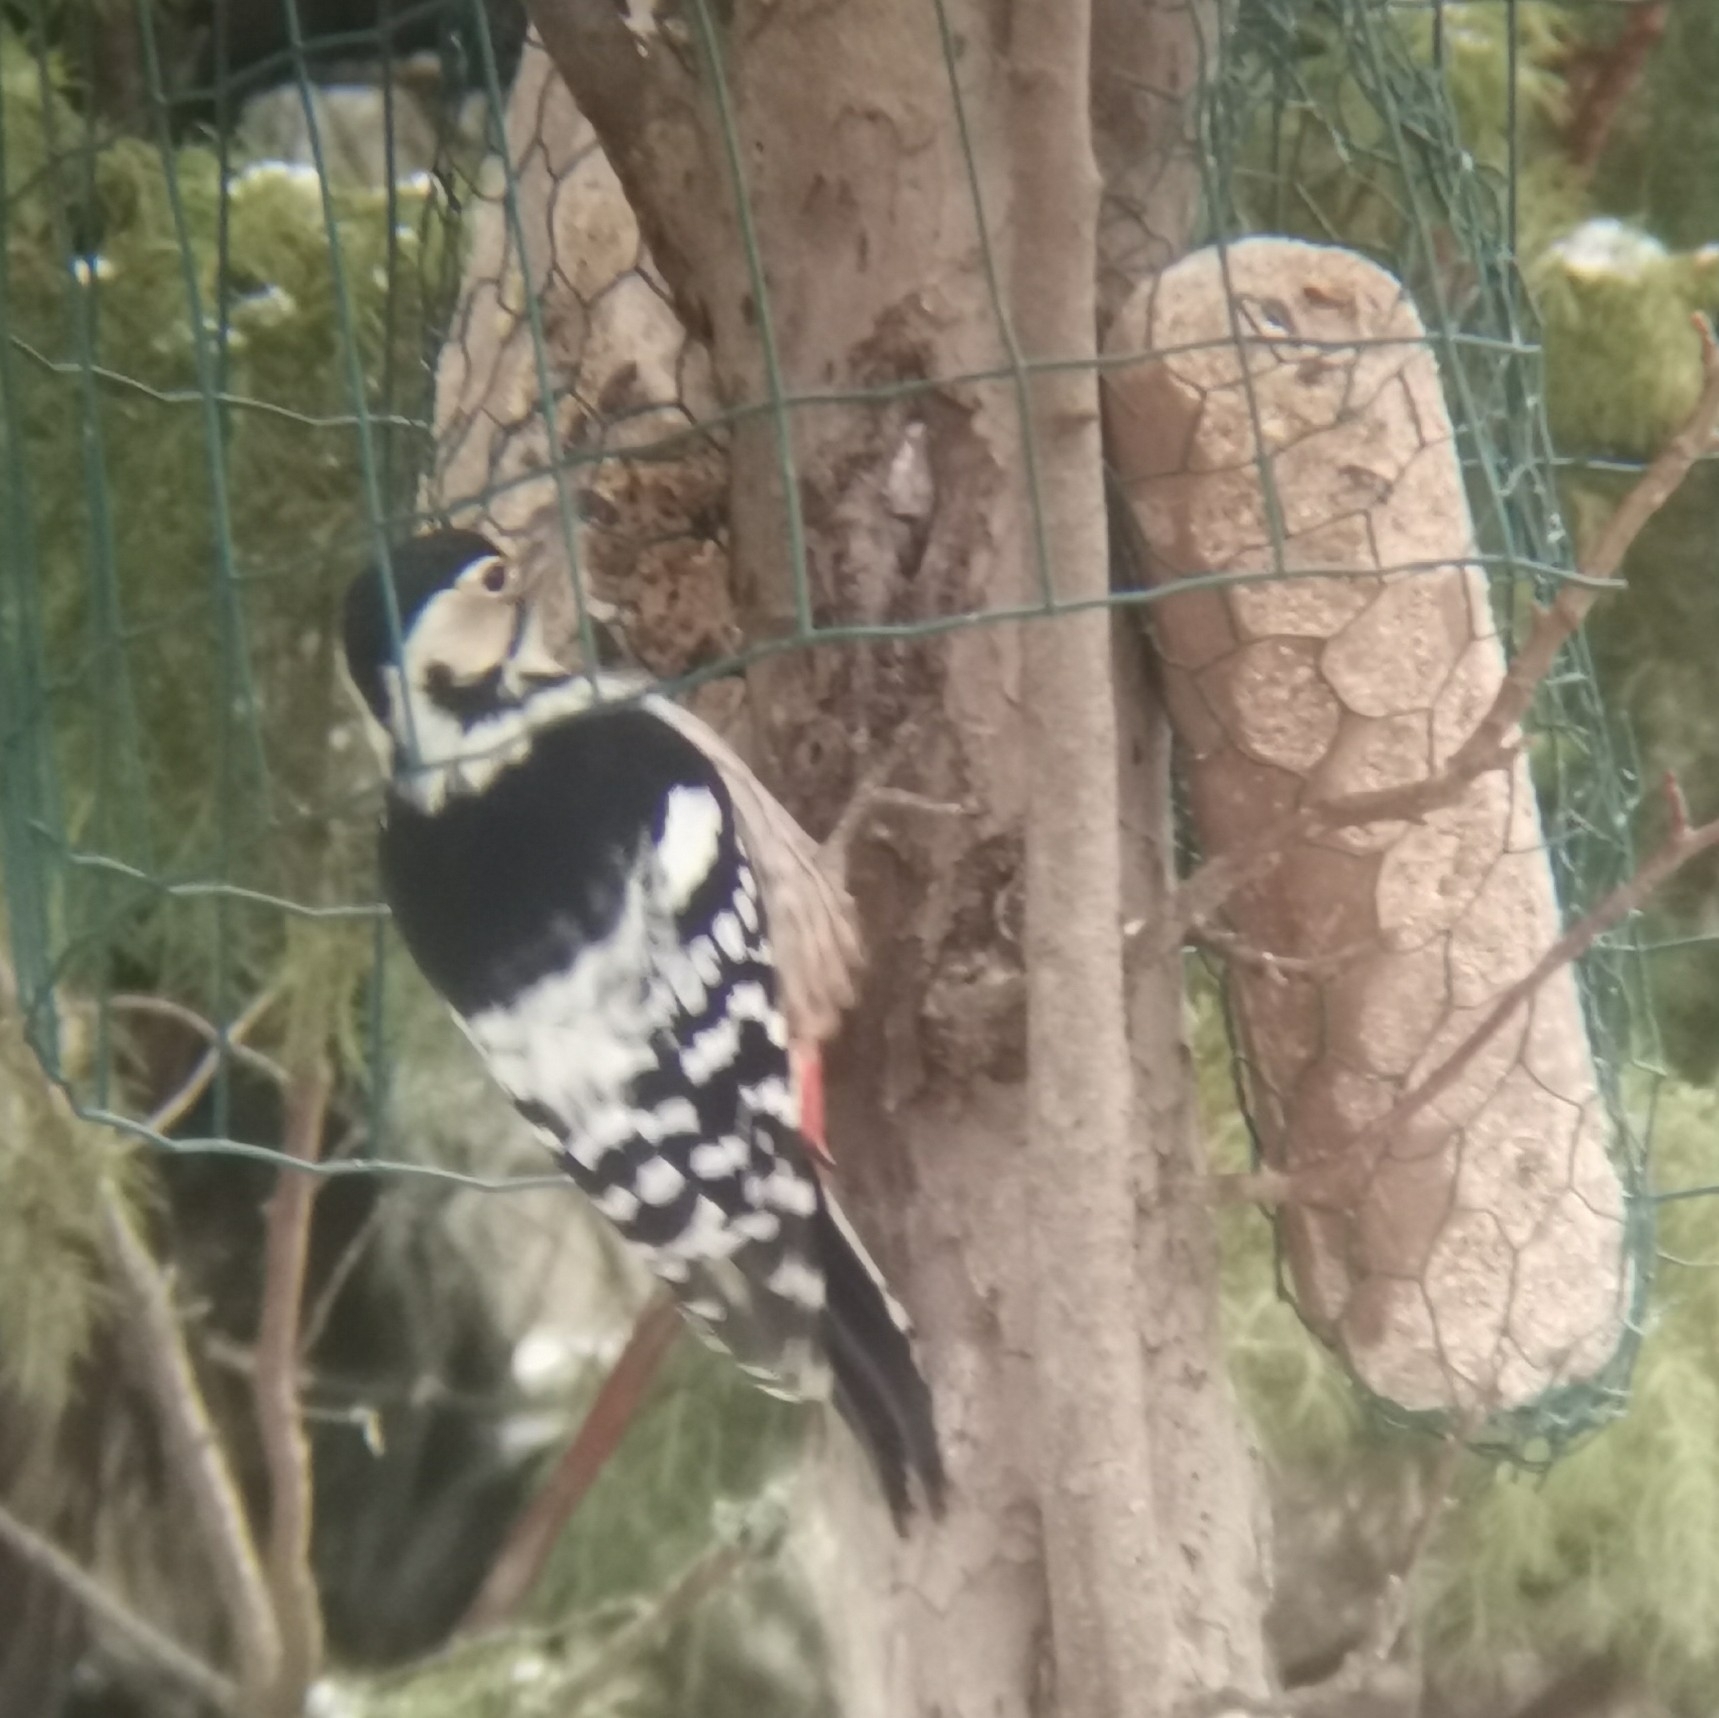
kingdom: Animalia
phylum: Chordata
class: Aves
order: Piciformes
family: Picidae
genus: Dendrocopos
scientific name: Dendrocopos leucotos
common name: White-backed woodpecker
